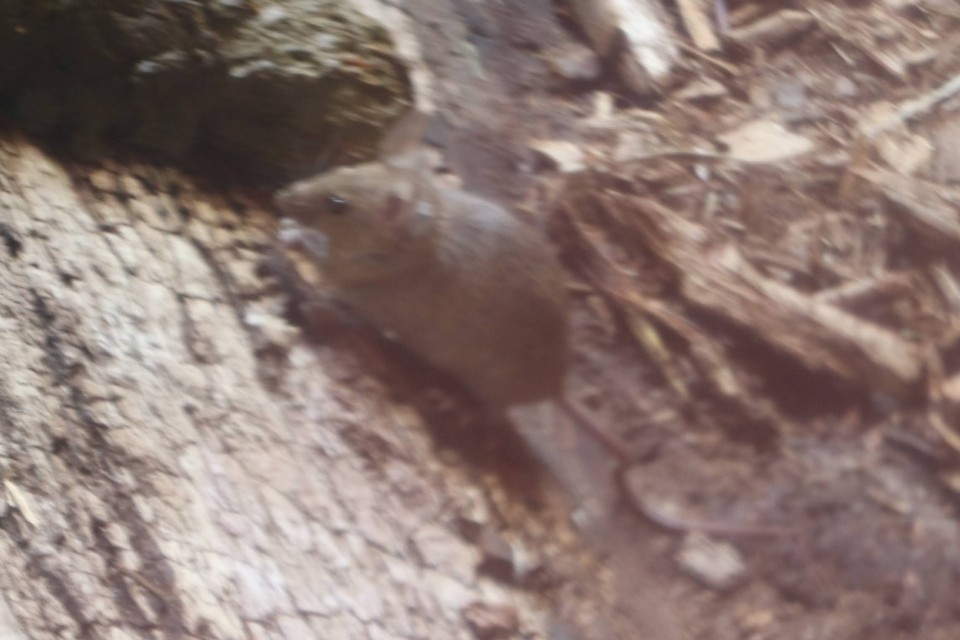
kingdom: Animalia
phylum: Chordata
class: Mammalia
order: Rodentia
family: Muridae
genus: Mus
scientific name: Mus musculus
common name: House mouse
